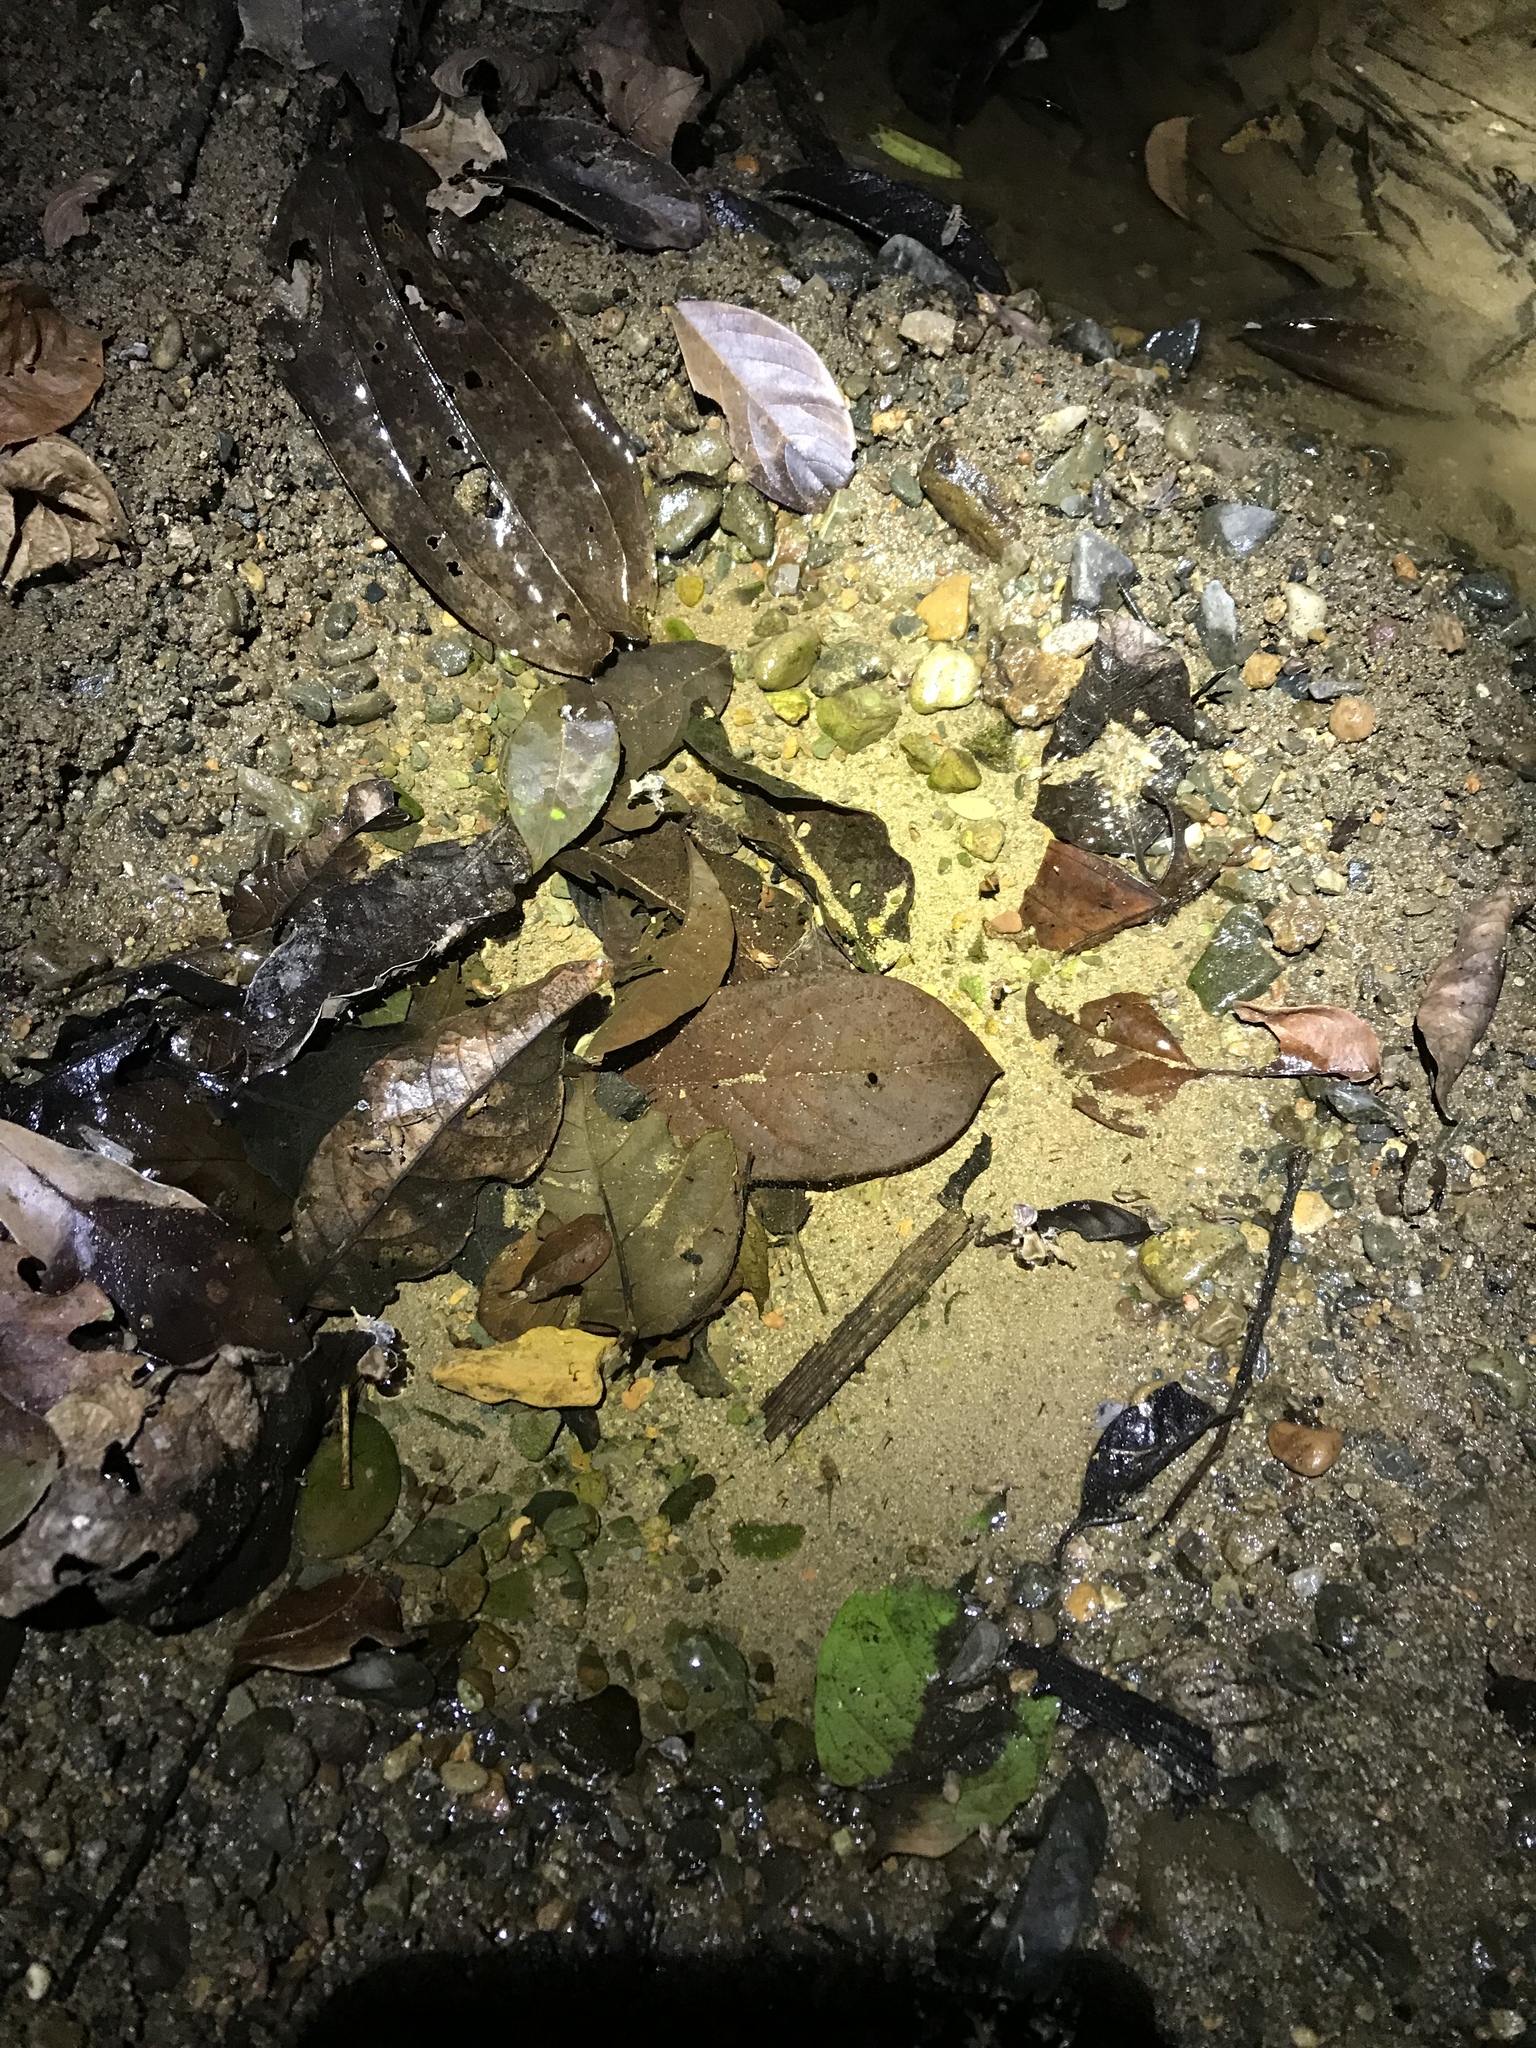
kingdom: Animalia
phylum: Chordata
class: Amphibia
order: Anura
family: Hylidae
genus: Boana
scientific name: Boana boans
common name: Giant gladiator treefrog
